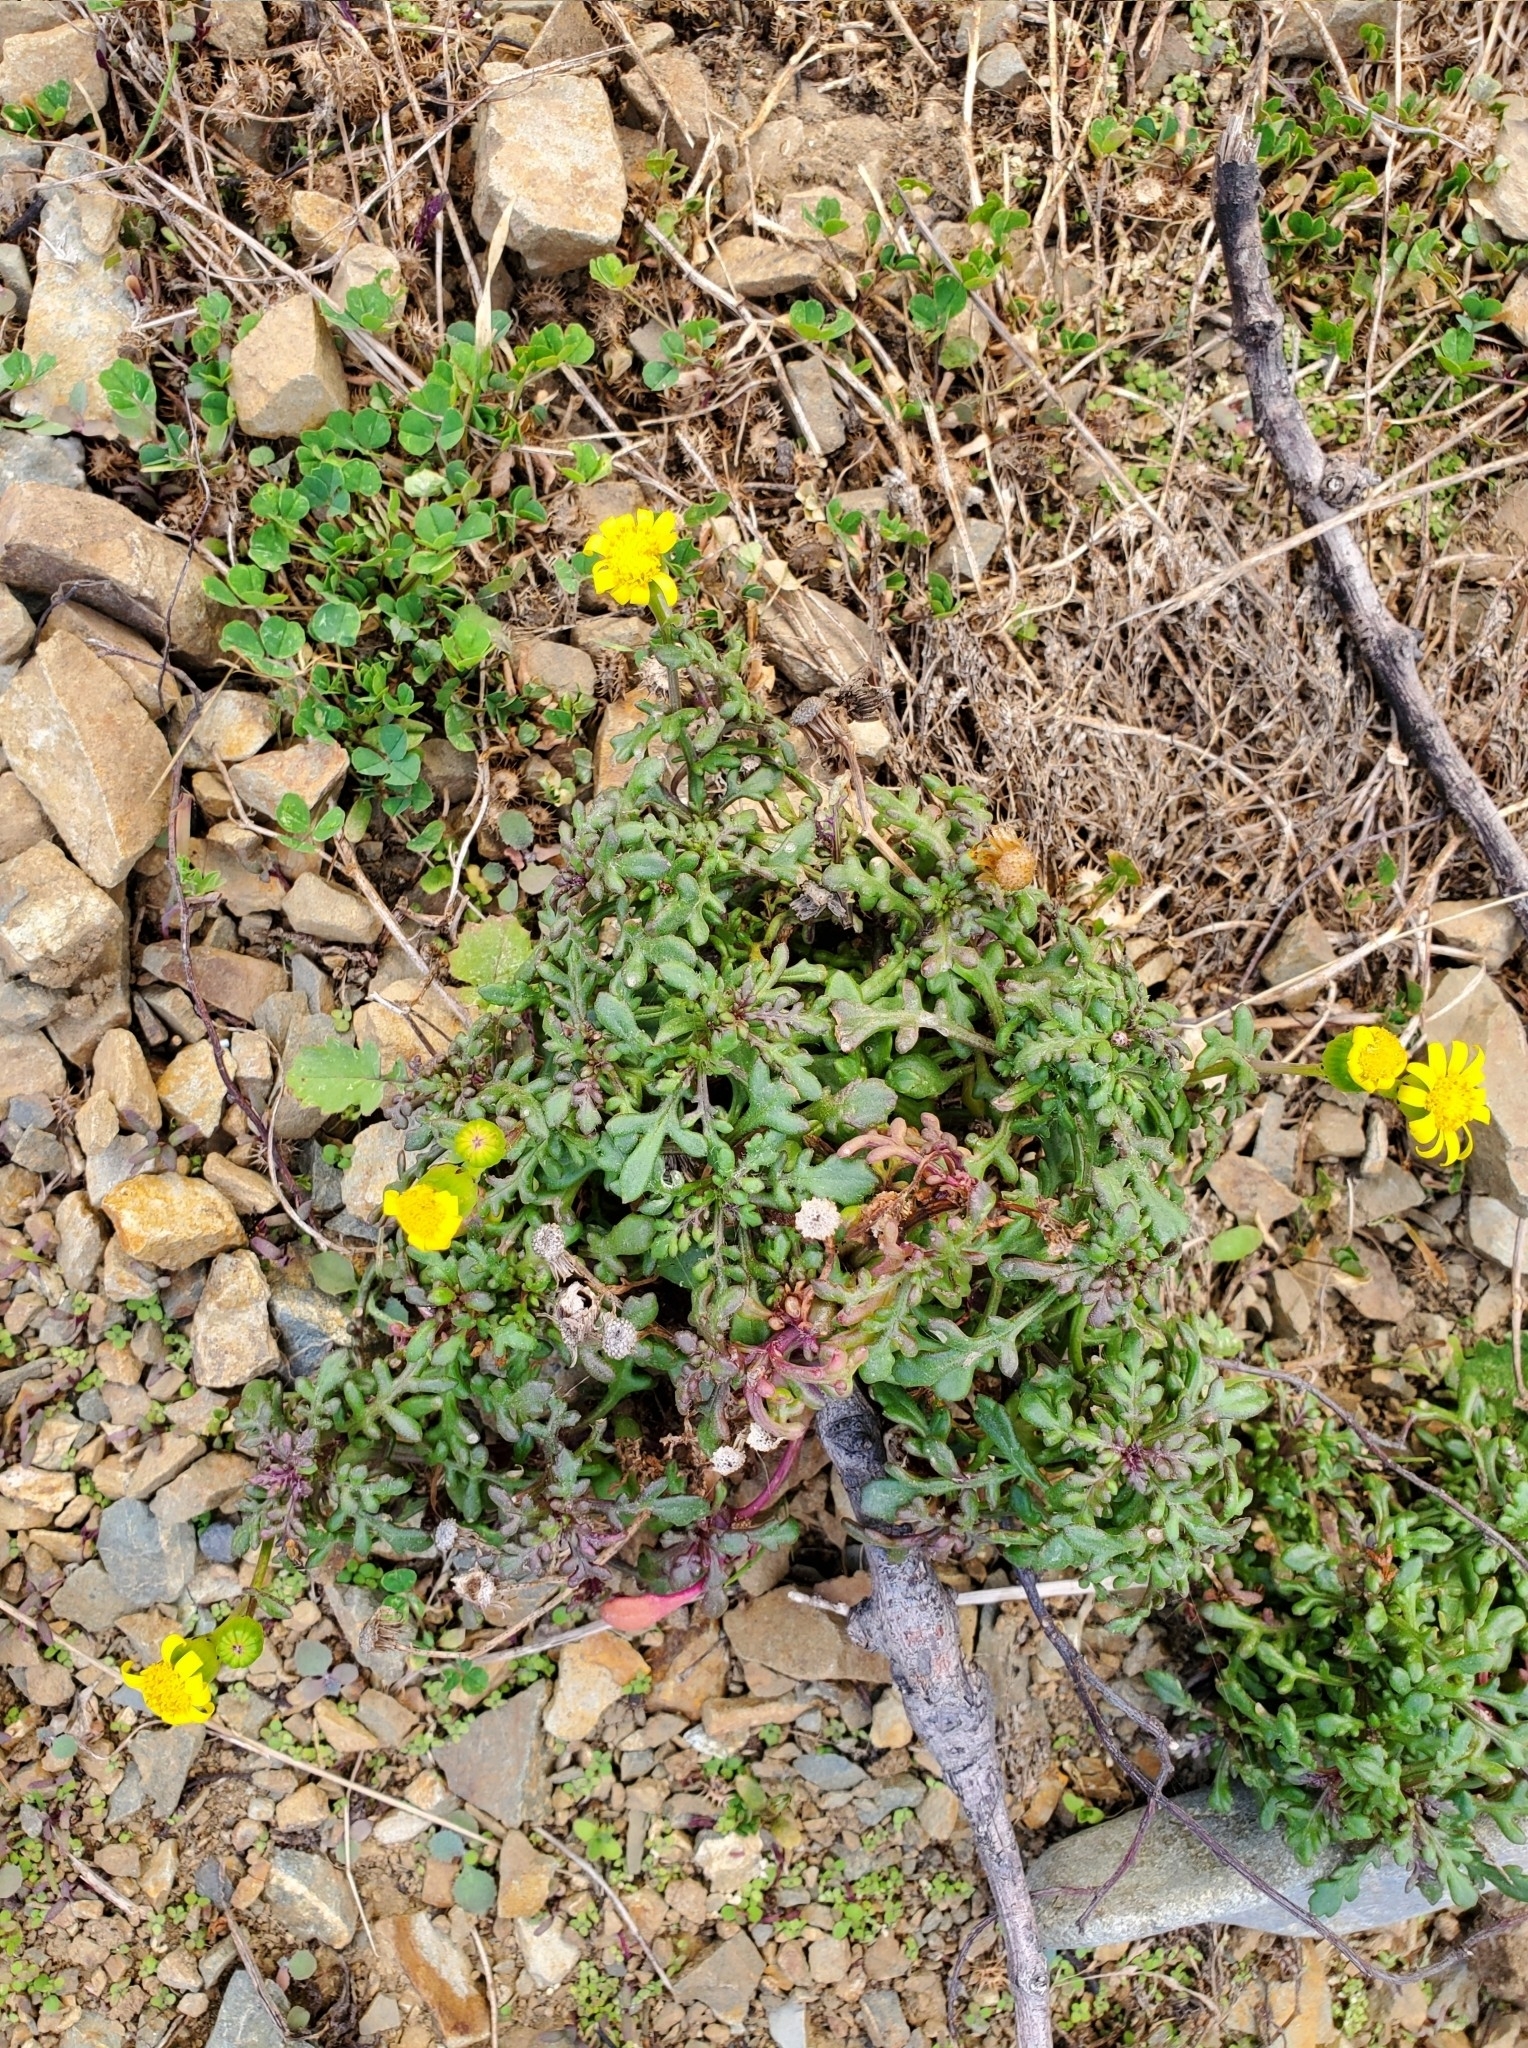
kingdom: Plantae
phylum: Tracheophyta
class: Magnoliopsida
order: Asterales
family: Asteraceae
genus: Senecio
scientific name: Senecio lautus
